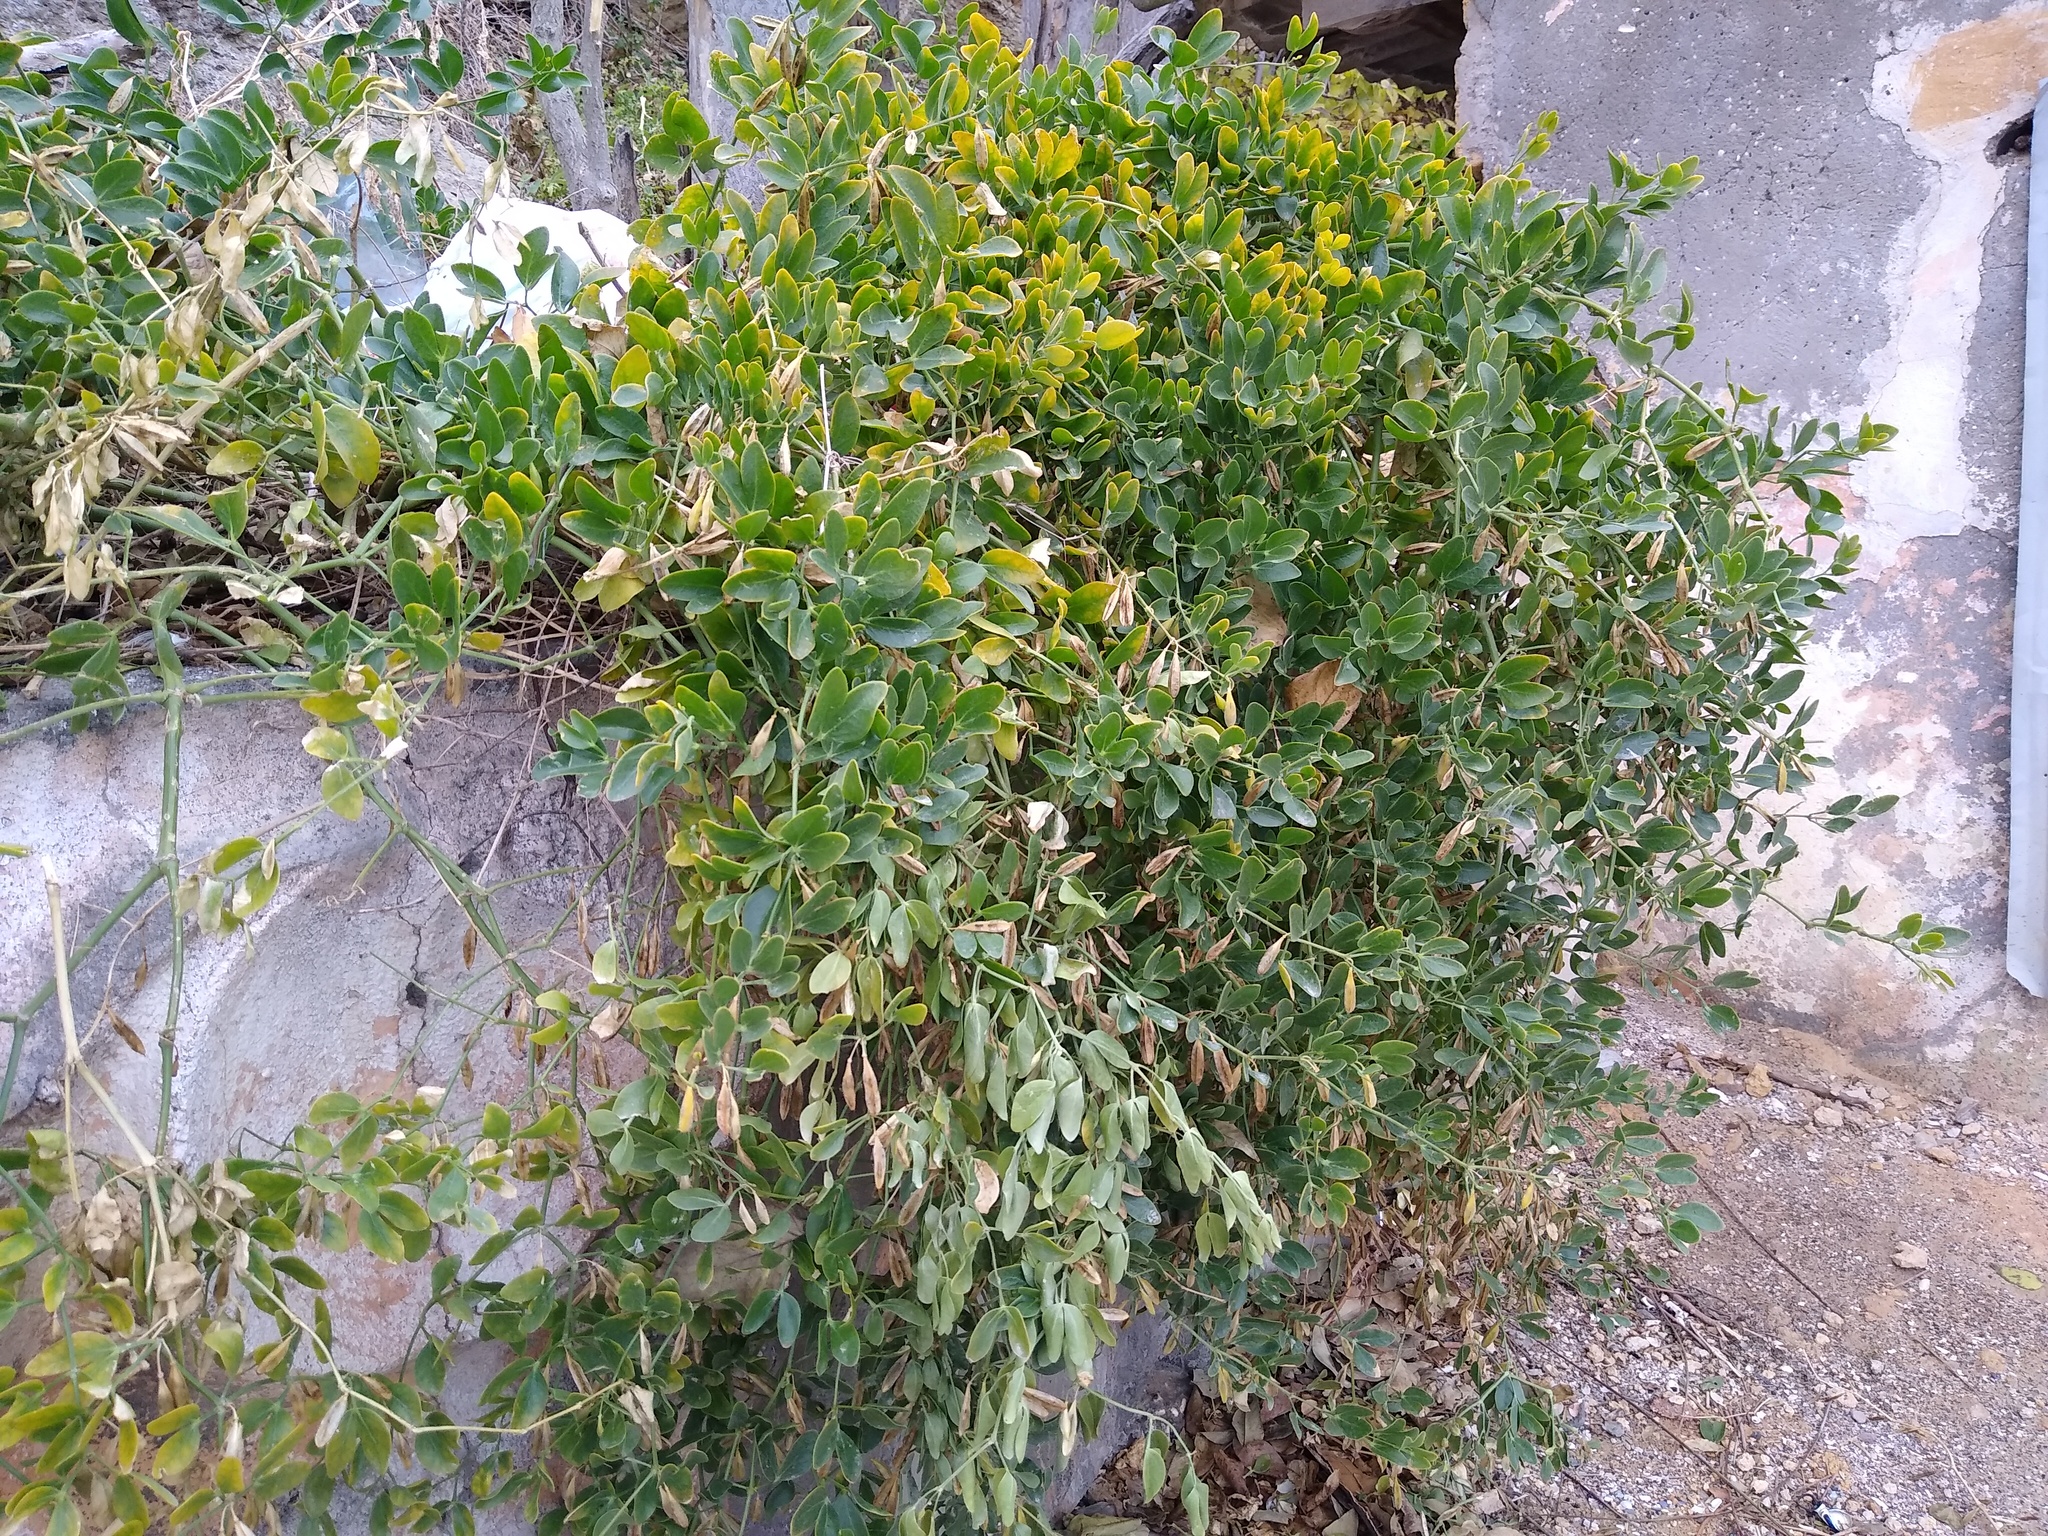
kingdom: Plantae
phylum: Tracheophyta
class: Magnoliopsida
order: Zygophyllales
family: Zygophyllaceae
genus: Zygophyllum
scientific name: Zygophyllum fabago
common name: Syrian beancaper
